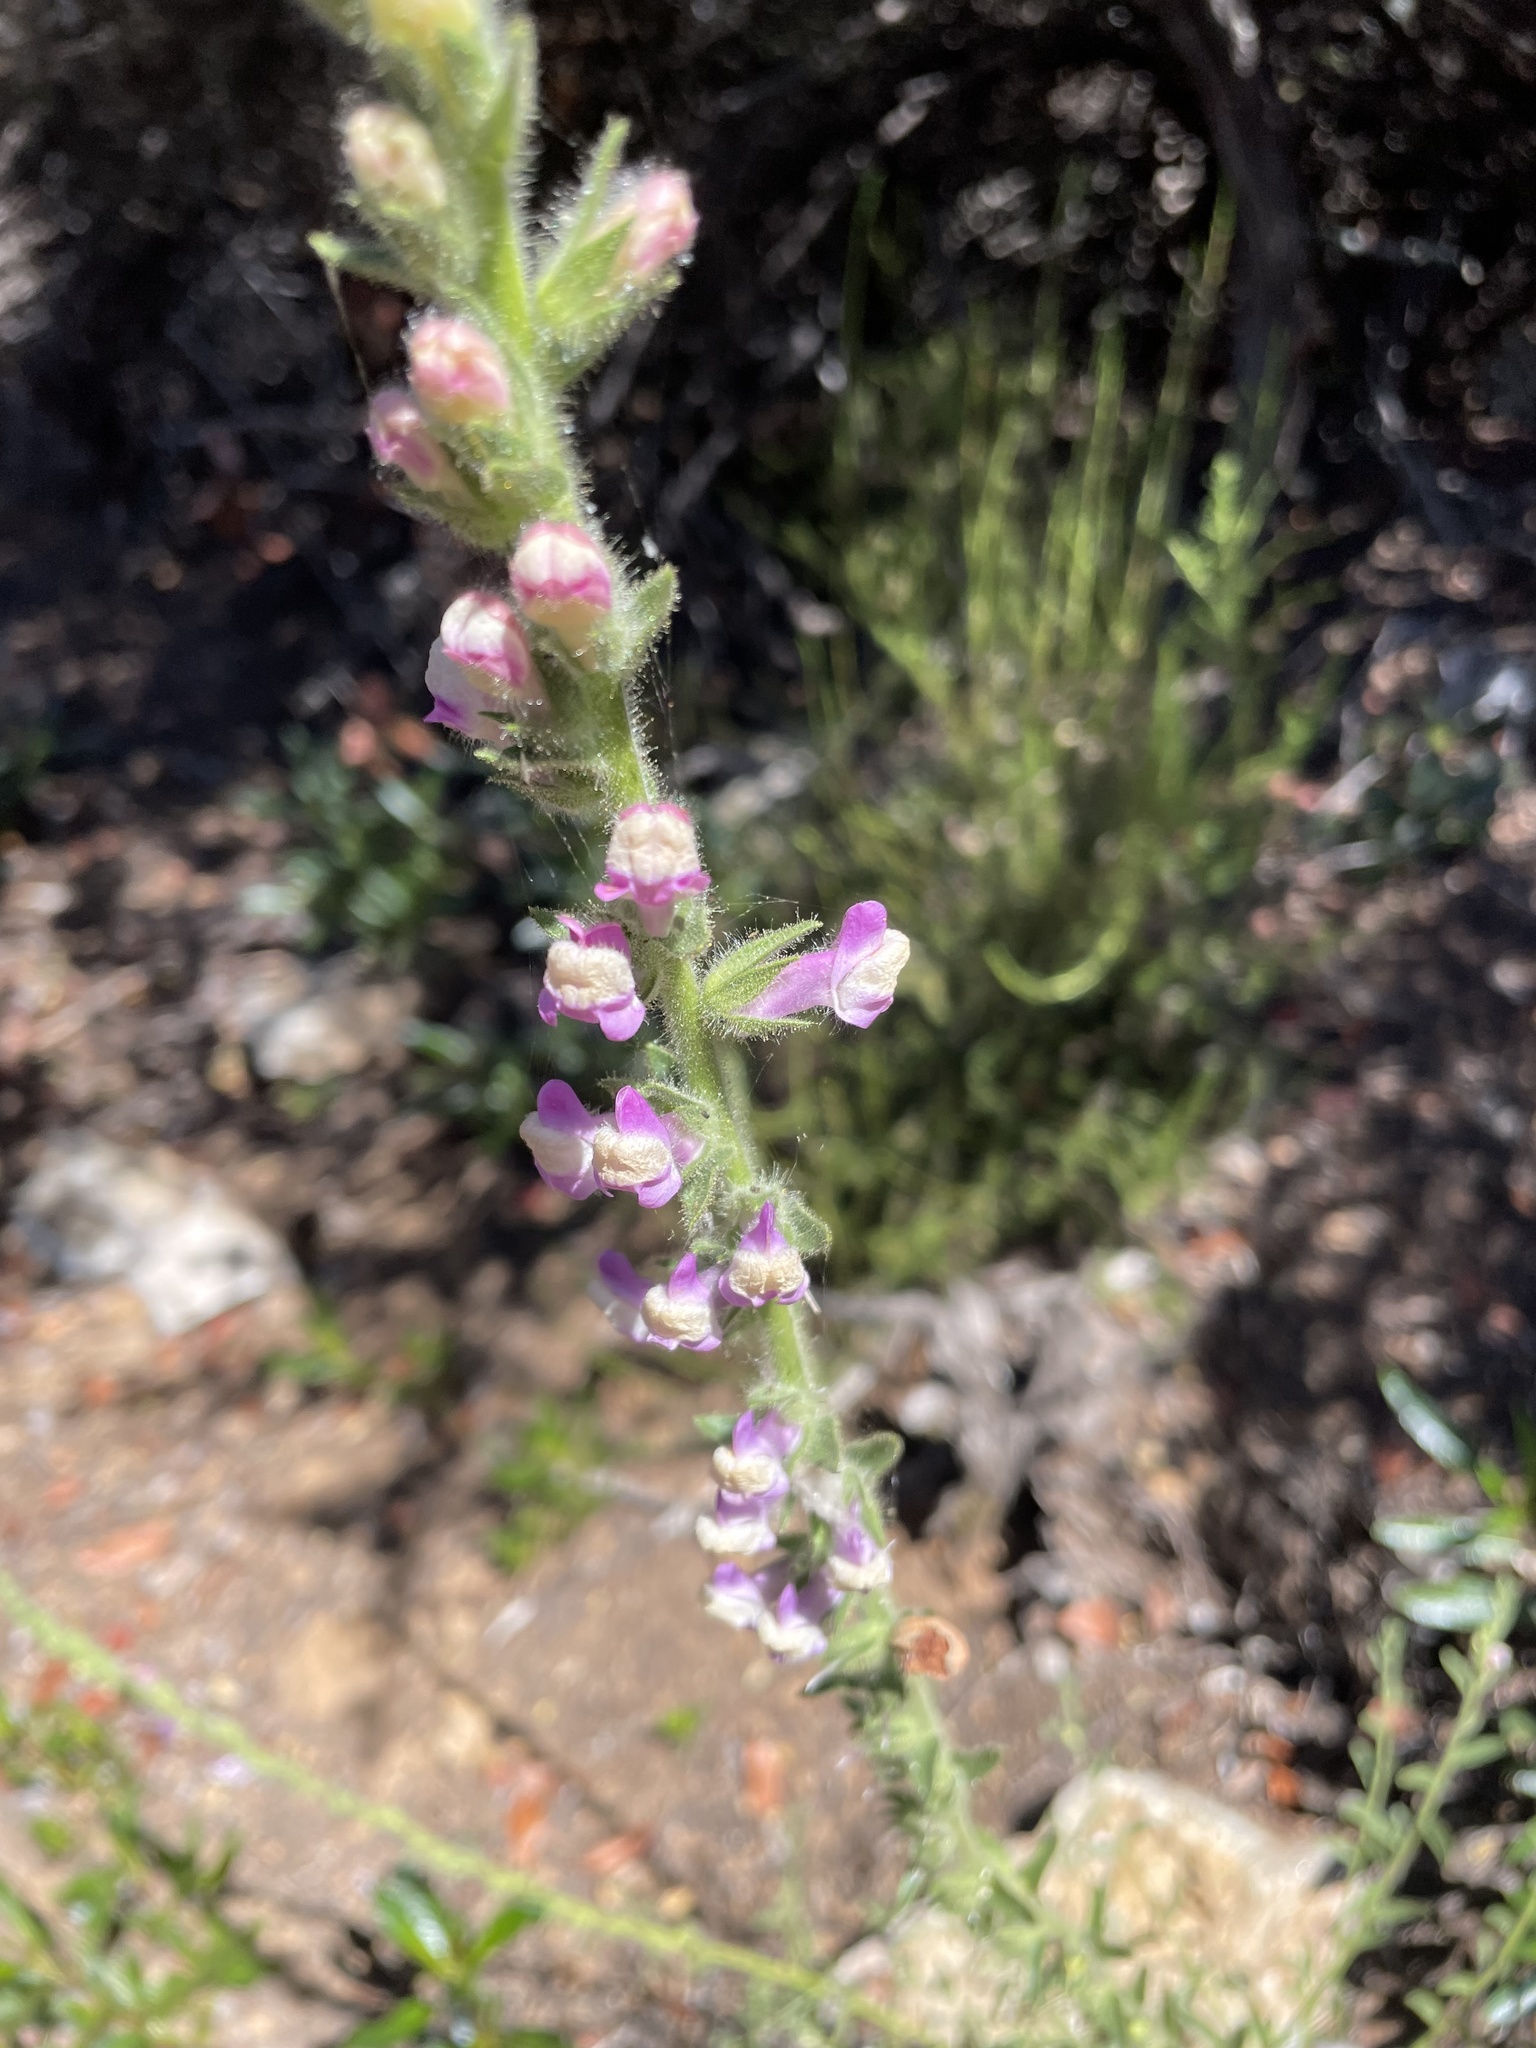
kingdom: Plantae
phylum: Tracheophyta
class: Magnoliopsida
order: Lamiales
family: Plantaginaceae
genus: Sairocarpus
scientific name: Sairocarpus multiflorus
